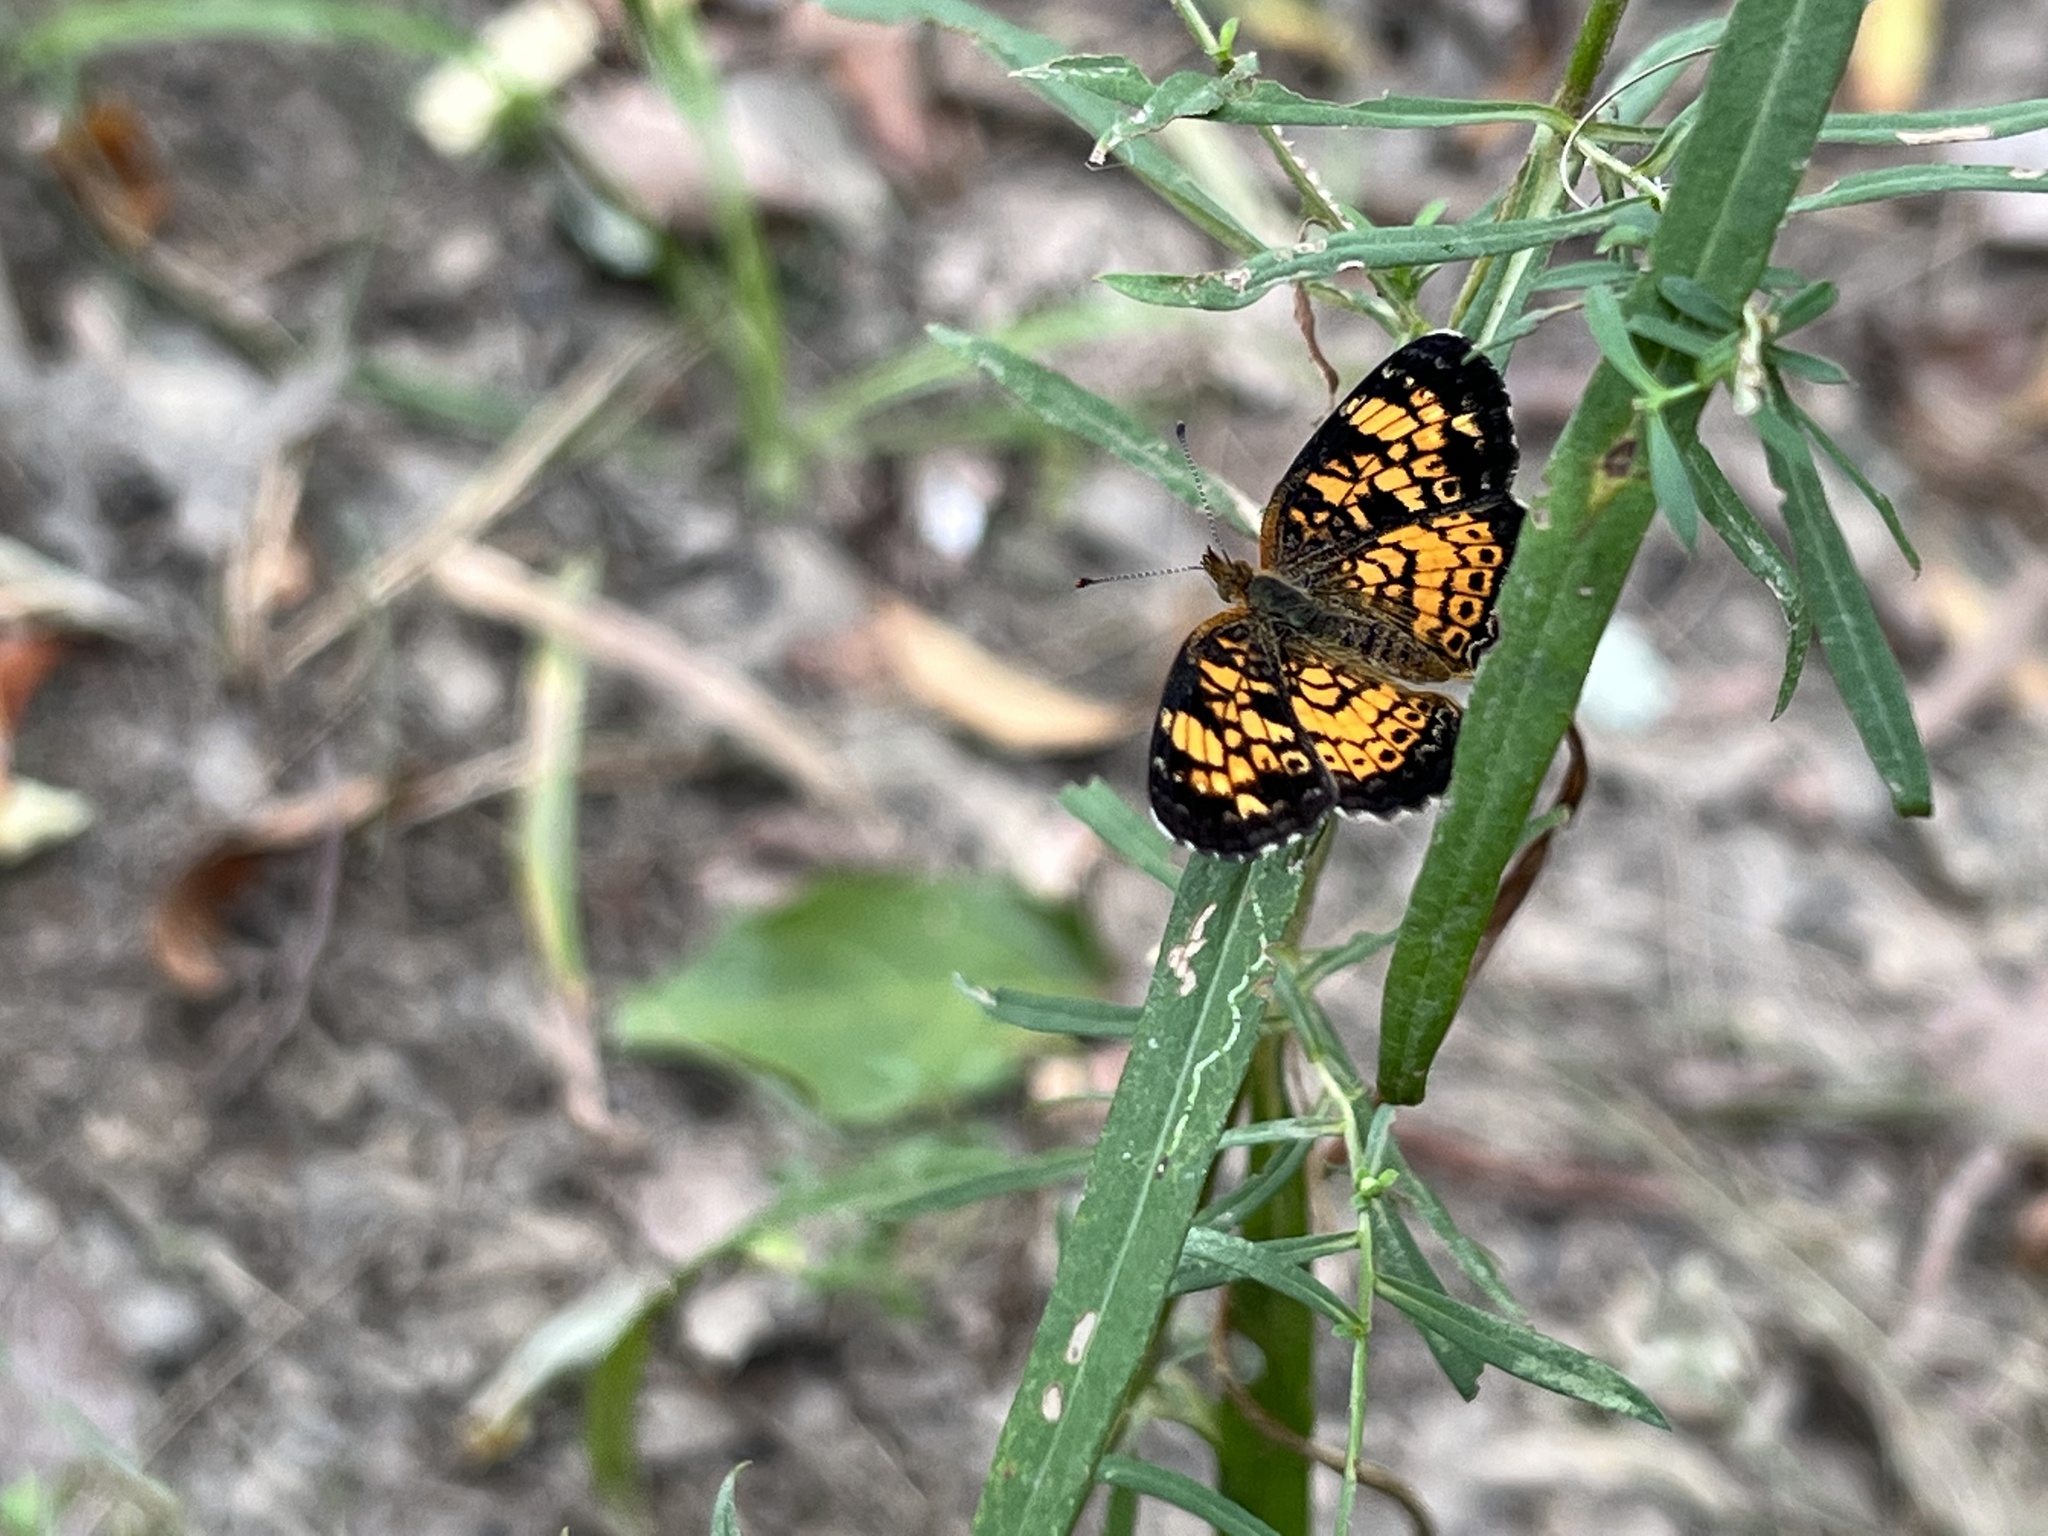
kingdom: Animalia
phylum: Arthropoda
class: Insecta
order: Lepidoptera
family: Nymphalidae
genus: Phyciodes
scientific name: Phyciodes tharos
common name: Pearl crescent
